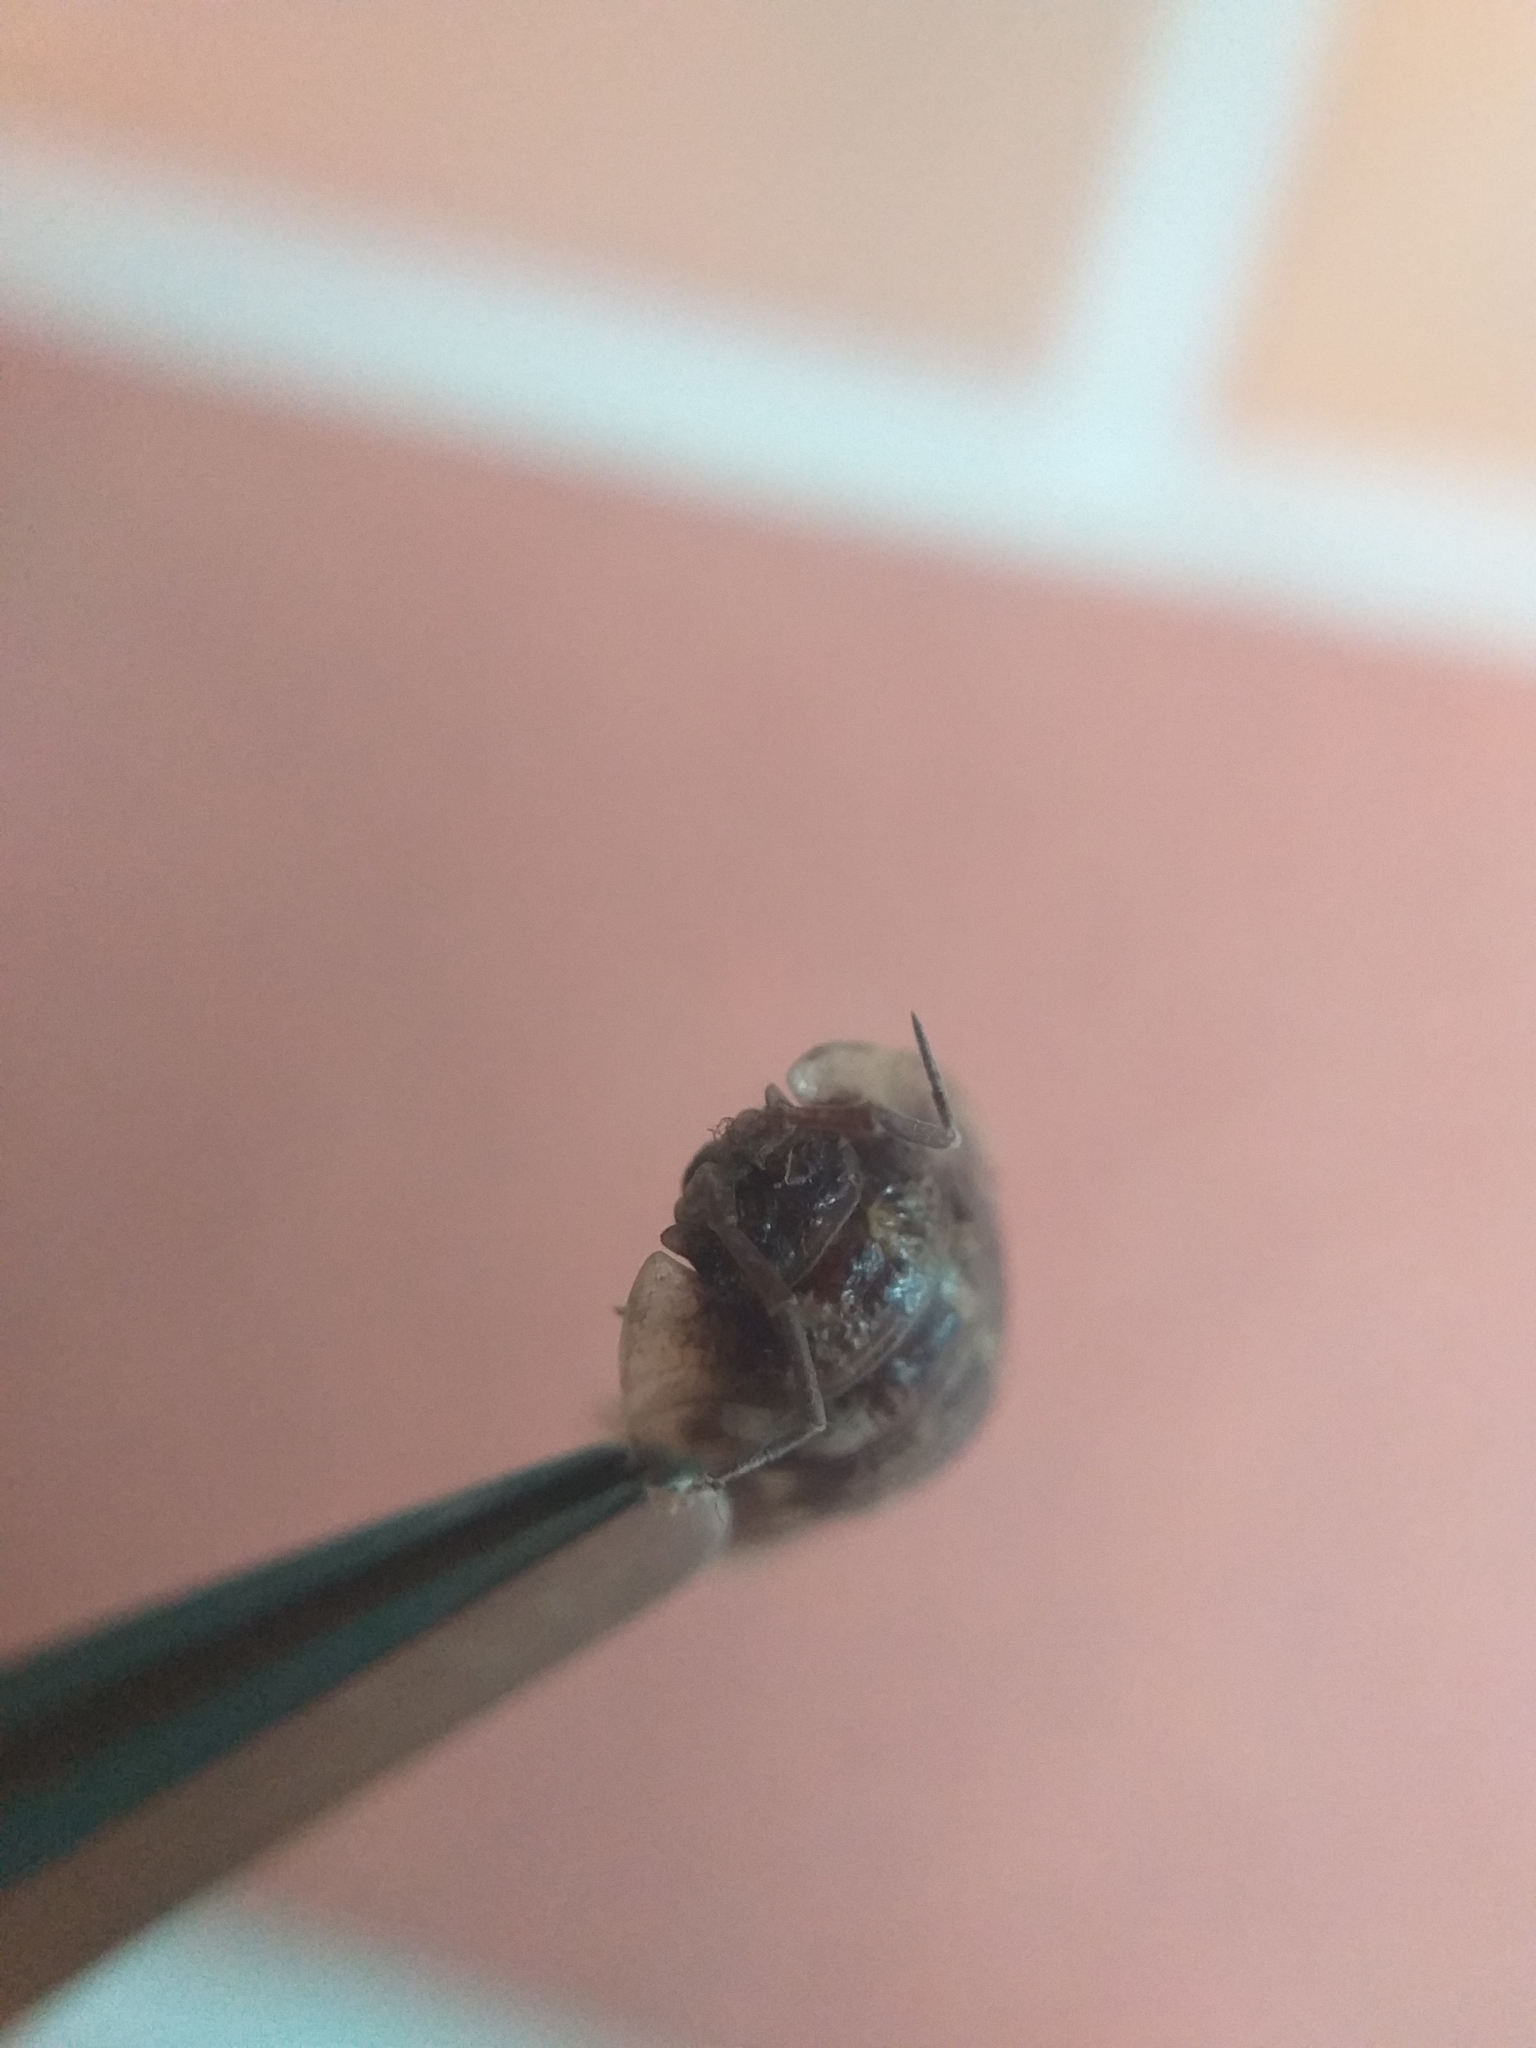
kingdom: Animalia
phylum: Arthropoda
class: Malacostraca
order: Isopoda
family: Oniscidae
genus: Oniscus
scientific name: Oniscus asellus
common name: Common shiny woodlouse
